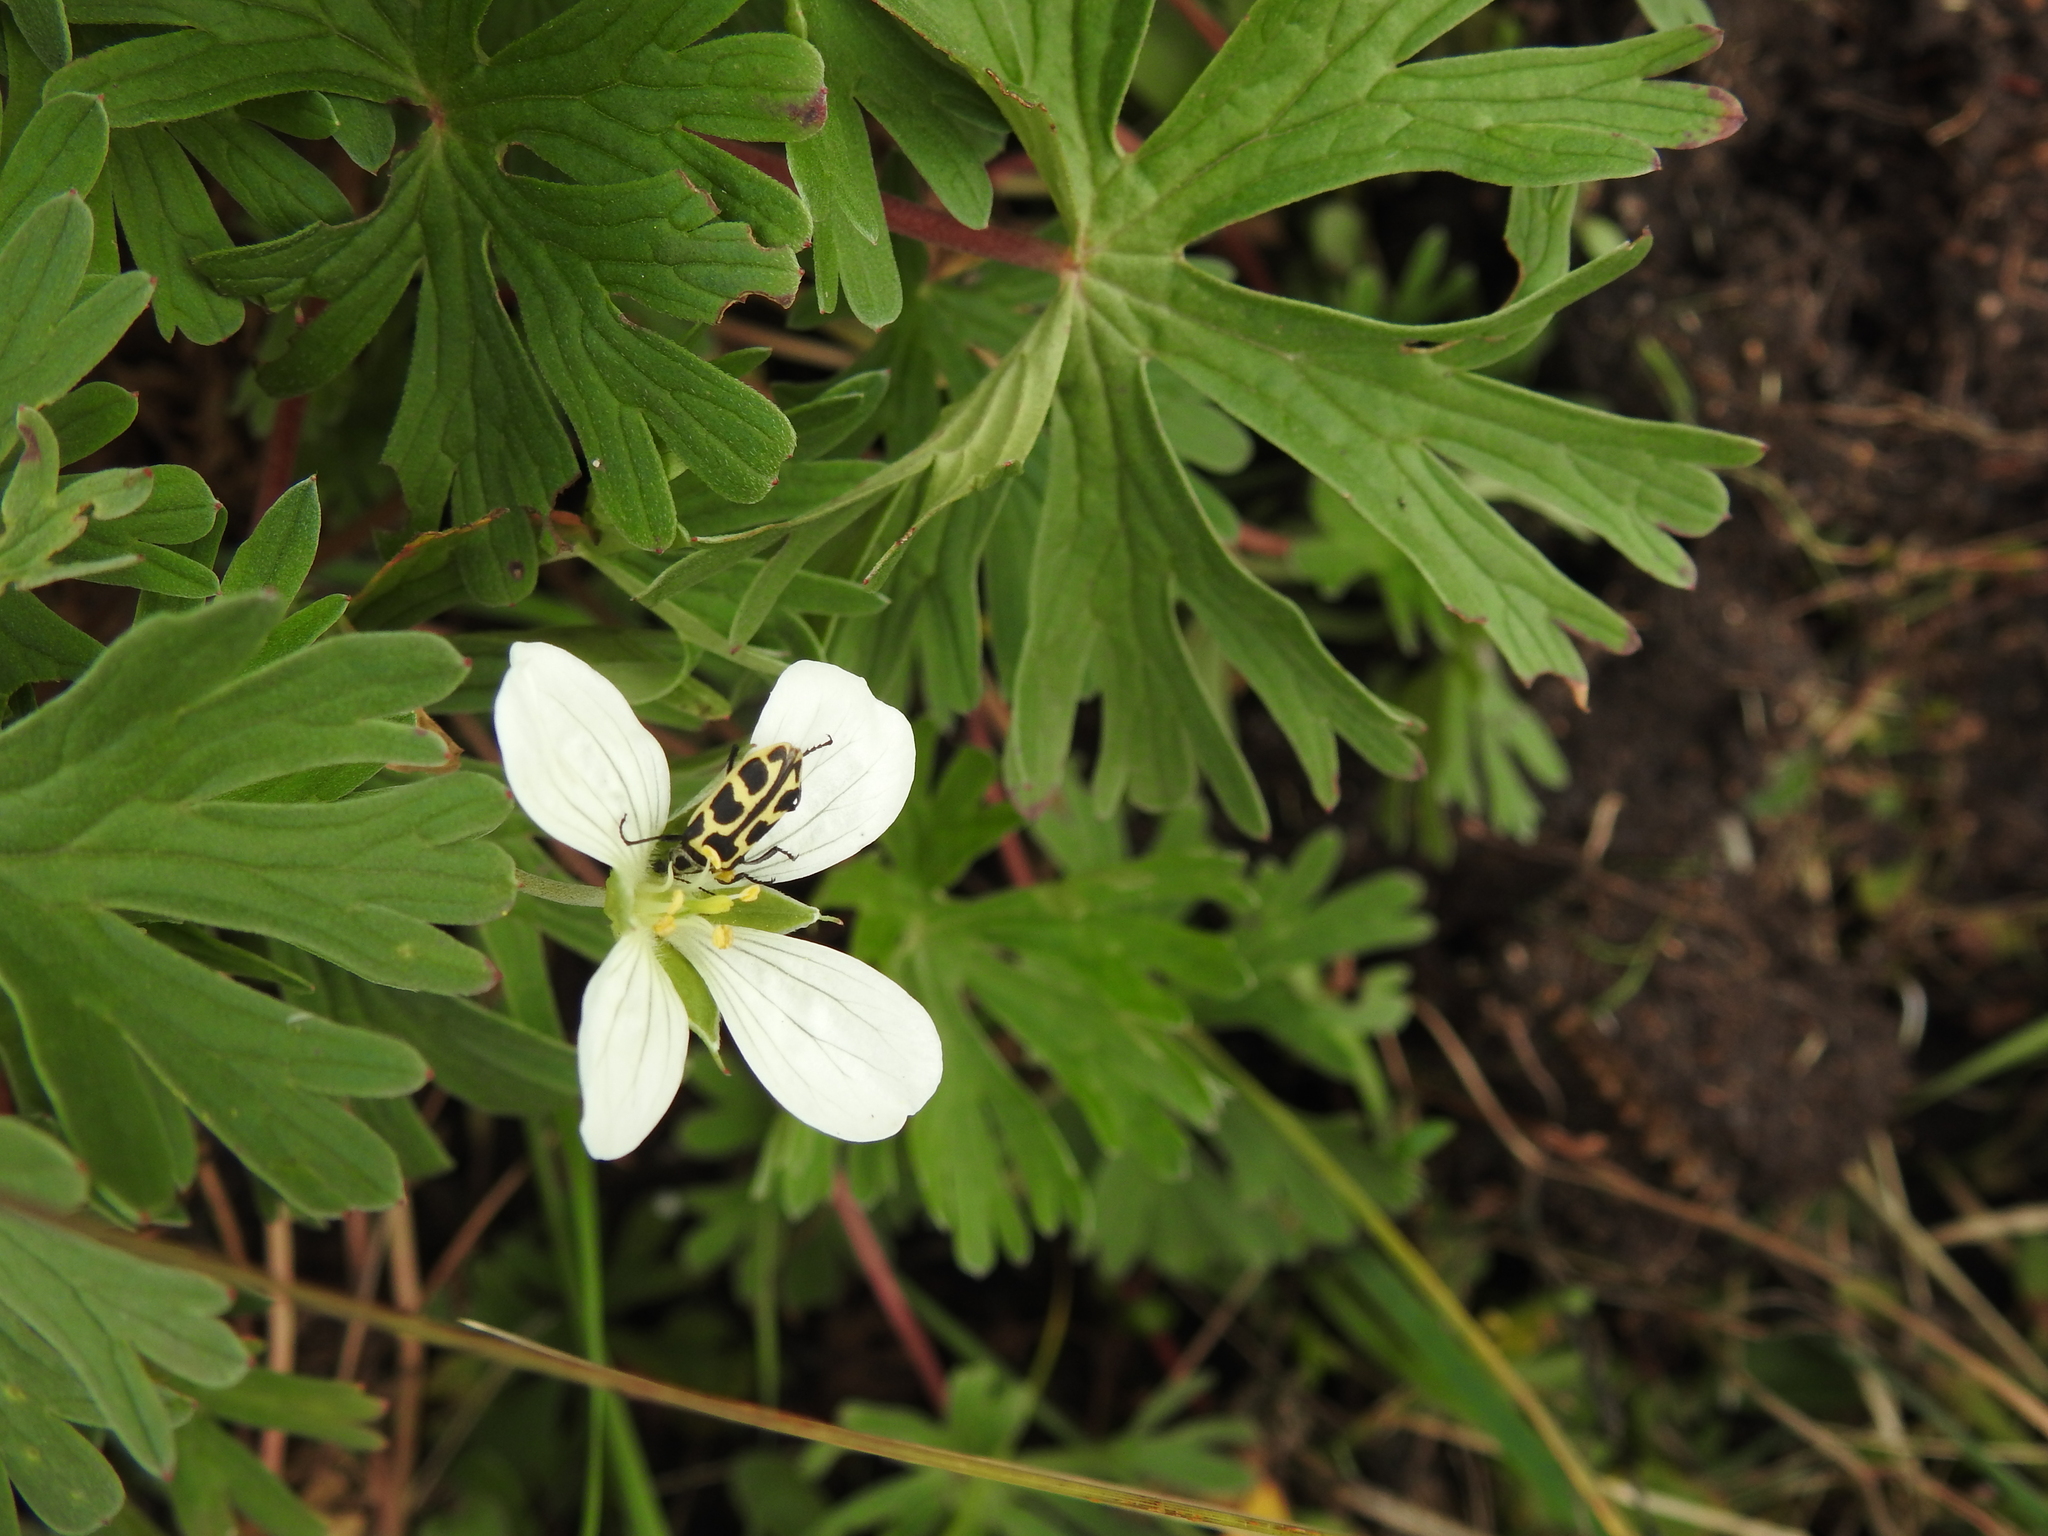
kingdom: Animalia
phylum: Arthropoda
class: Insecta
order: Coleoptera
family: Melyridae
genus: Astylus
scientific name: Astylus atromaculatus
